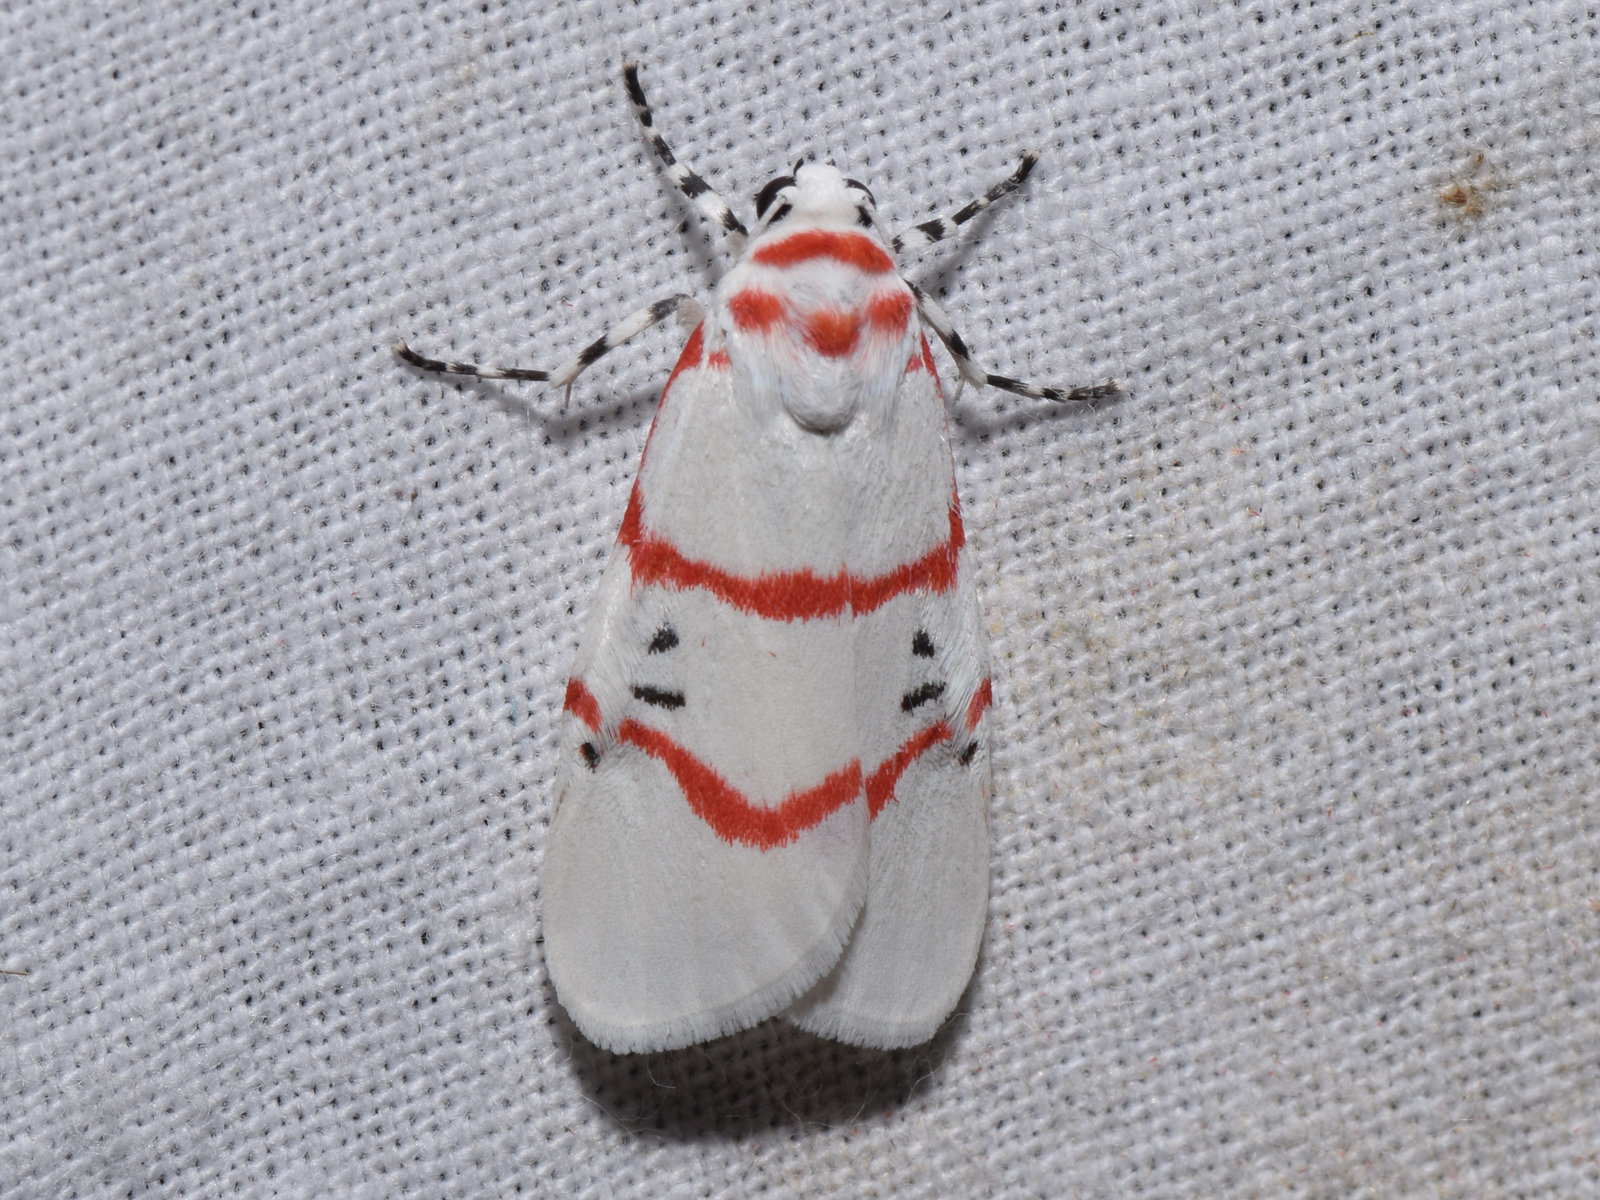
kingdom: Animalia
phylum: Arthropoda
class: Insecta
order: Lepidoptera
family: Erebidae
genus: Cyana
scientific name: Cyana signa
